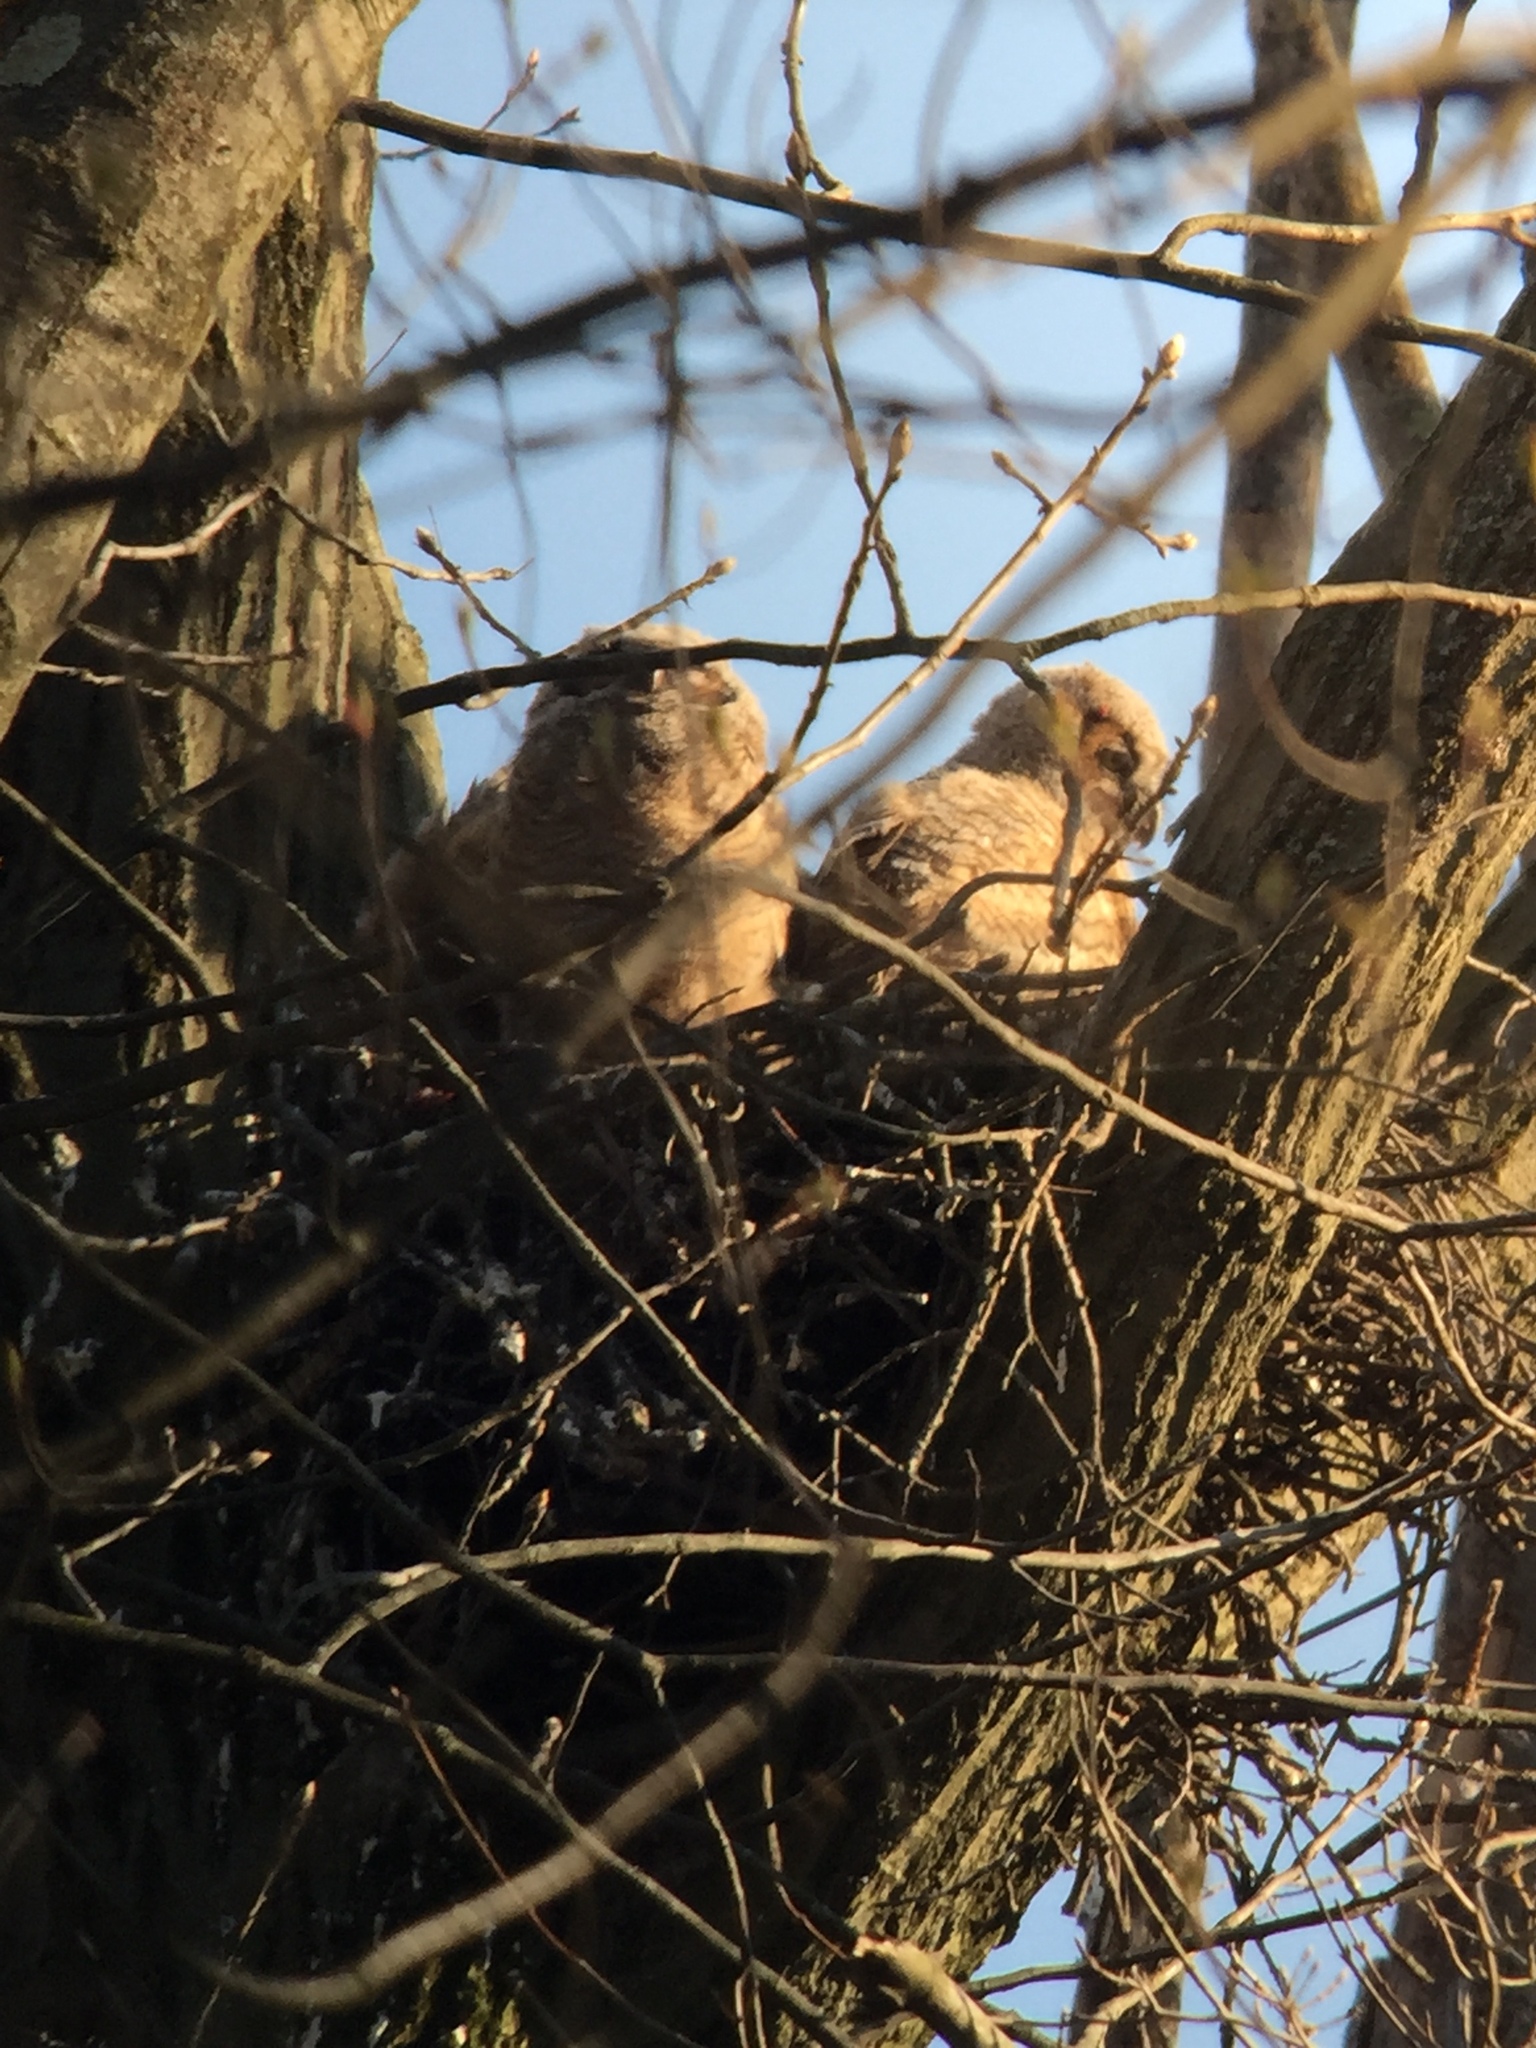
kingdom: Animalia
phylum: Chordata
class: Aves
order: Strigiformes
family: Strigidae
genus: Bubo
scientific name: Bubo virginianus
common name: Great horned owl
